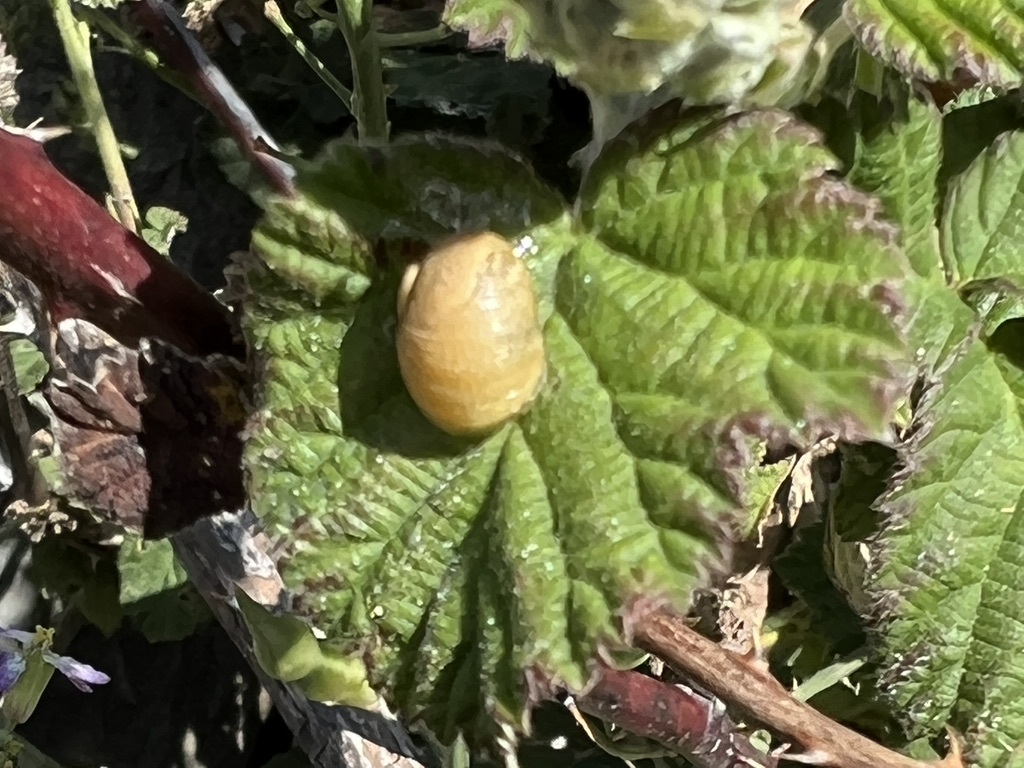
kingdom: Animalia
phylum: Mollusca
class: Gastropoda
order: Stylommatophora
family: Helicidae
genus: Cantareus
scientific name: Cantareus apertus
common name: Green gardensnail
